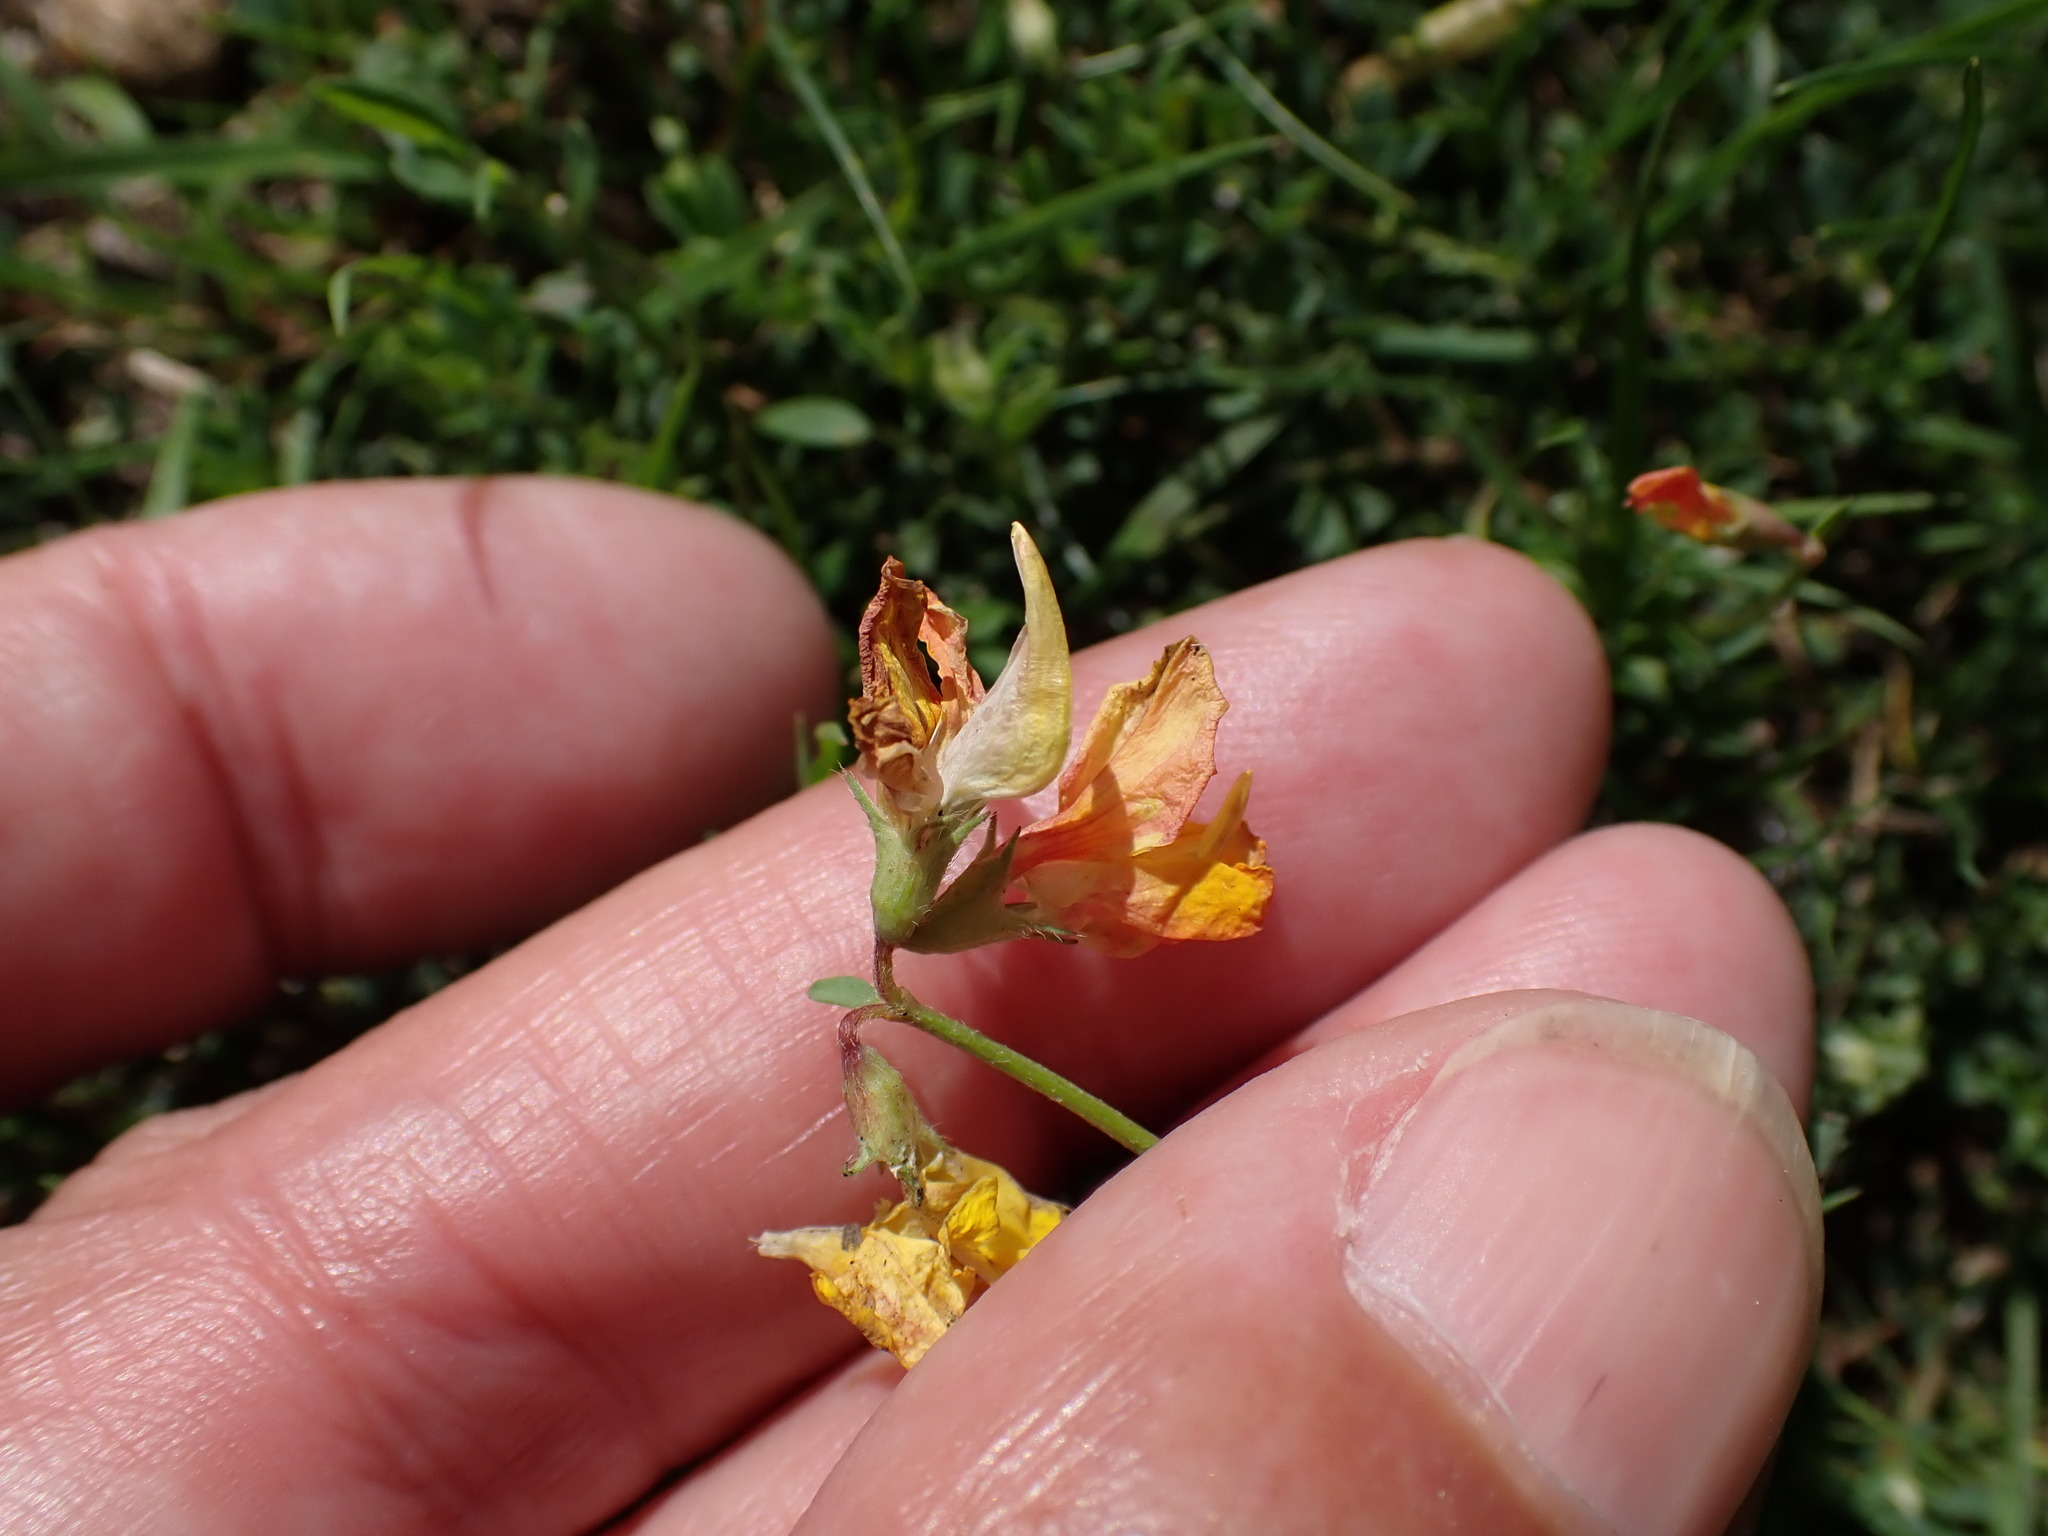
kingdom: Plantae
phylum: Tracheophyta
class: Magnoliopsida
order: Fabales
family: Fabaceae
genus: Lotus
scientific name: Lotus corniculatus
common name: Common bird's-foot-trefoil
